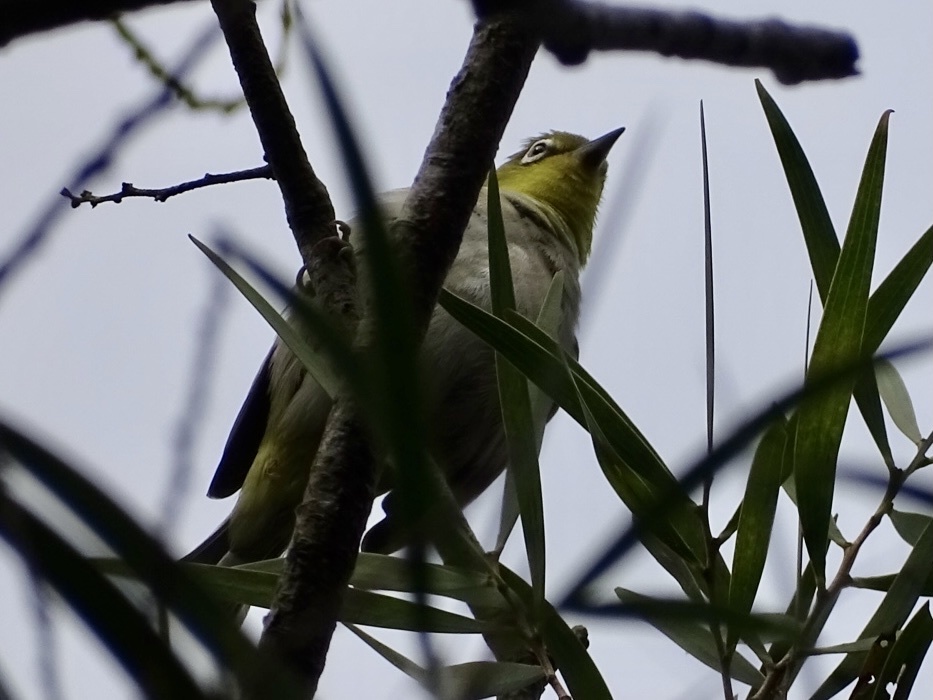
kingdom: Animalia
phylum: Chordata
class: Aves
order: Passeriformes
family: Zosteropidae
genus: Zosterops
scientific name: Zosterops simplex
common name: Swinhoe's white-eye
